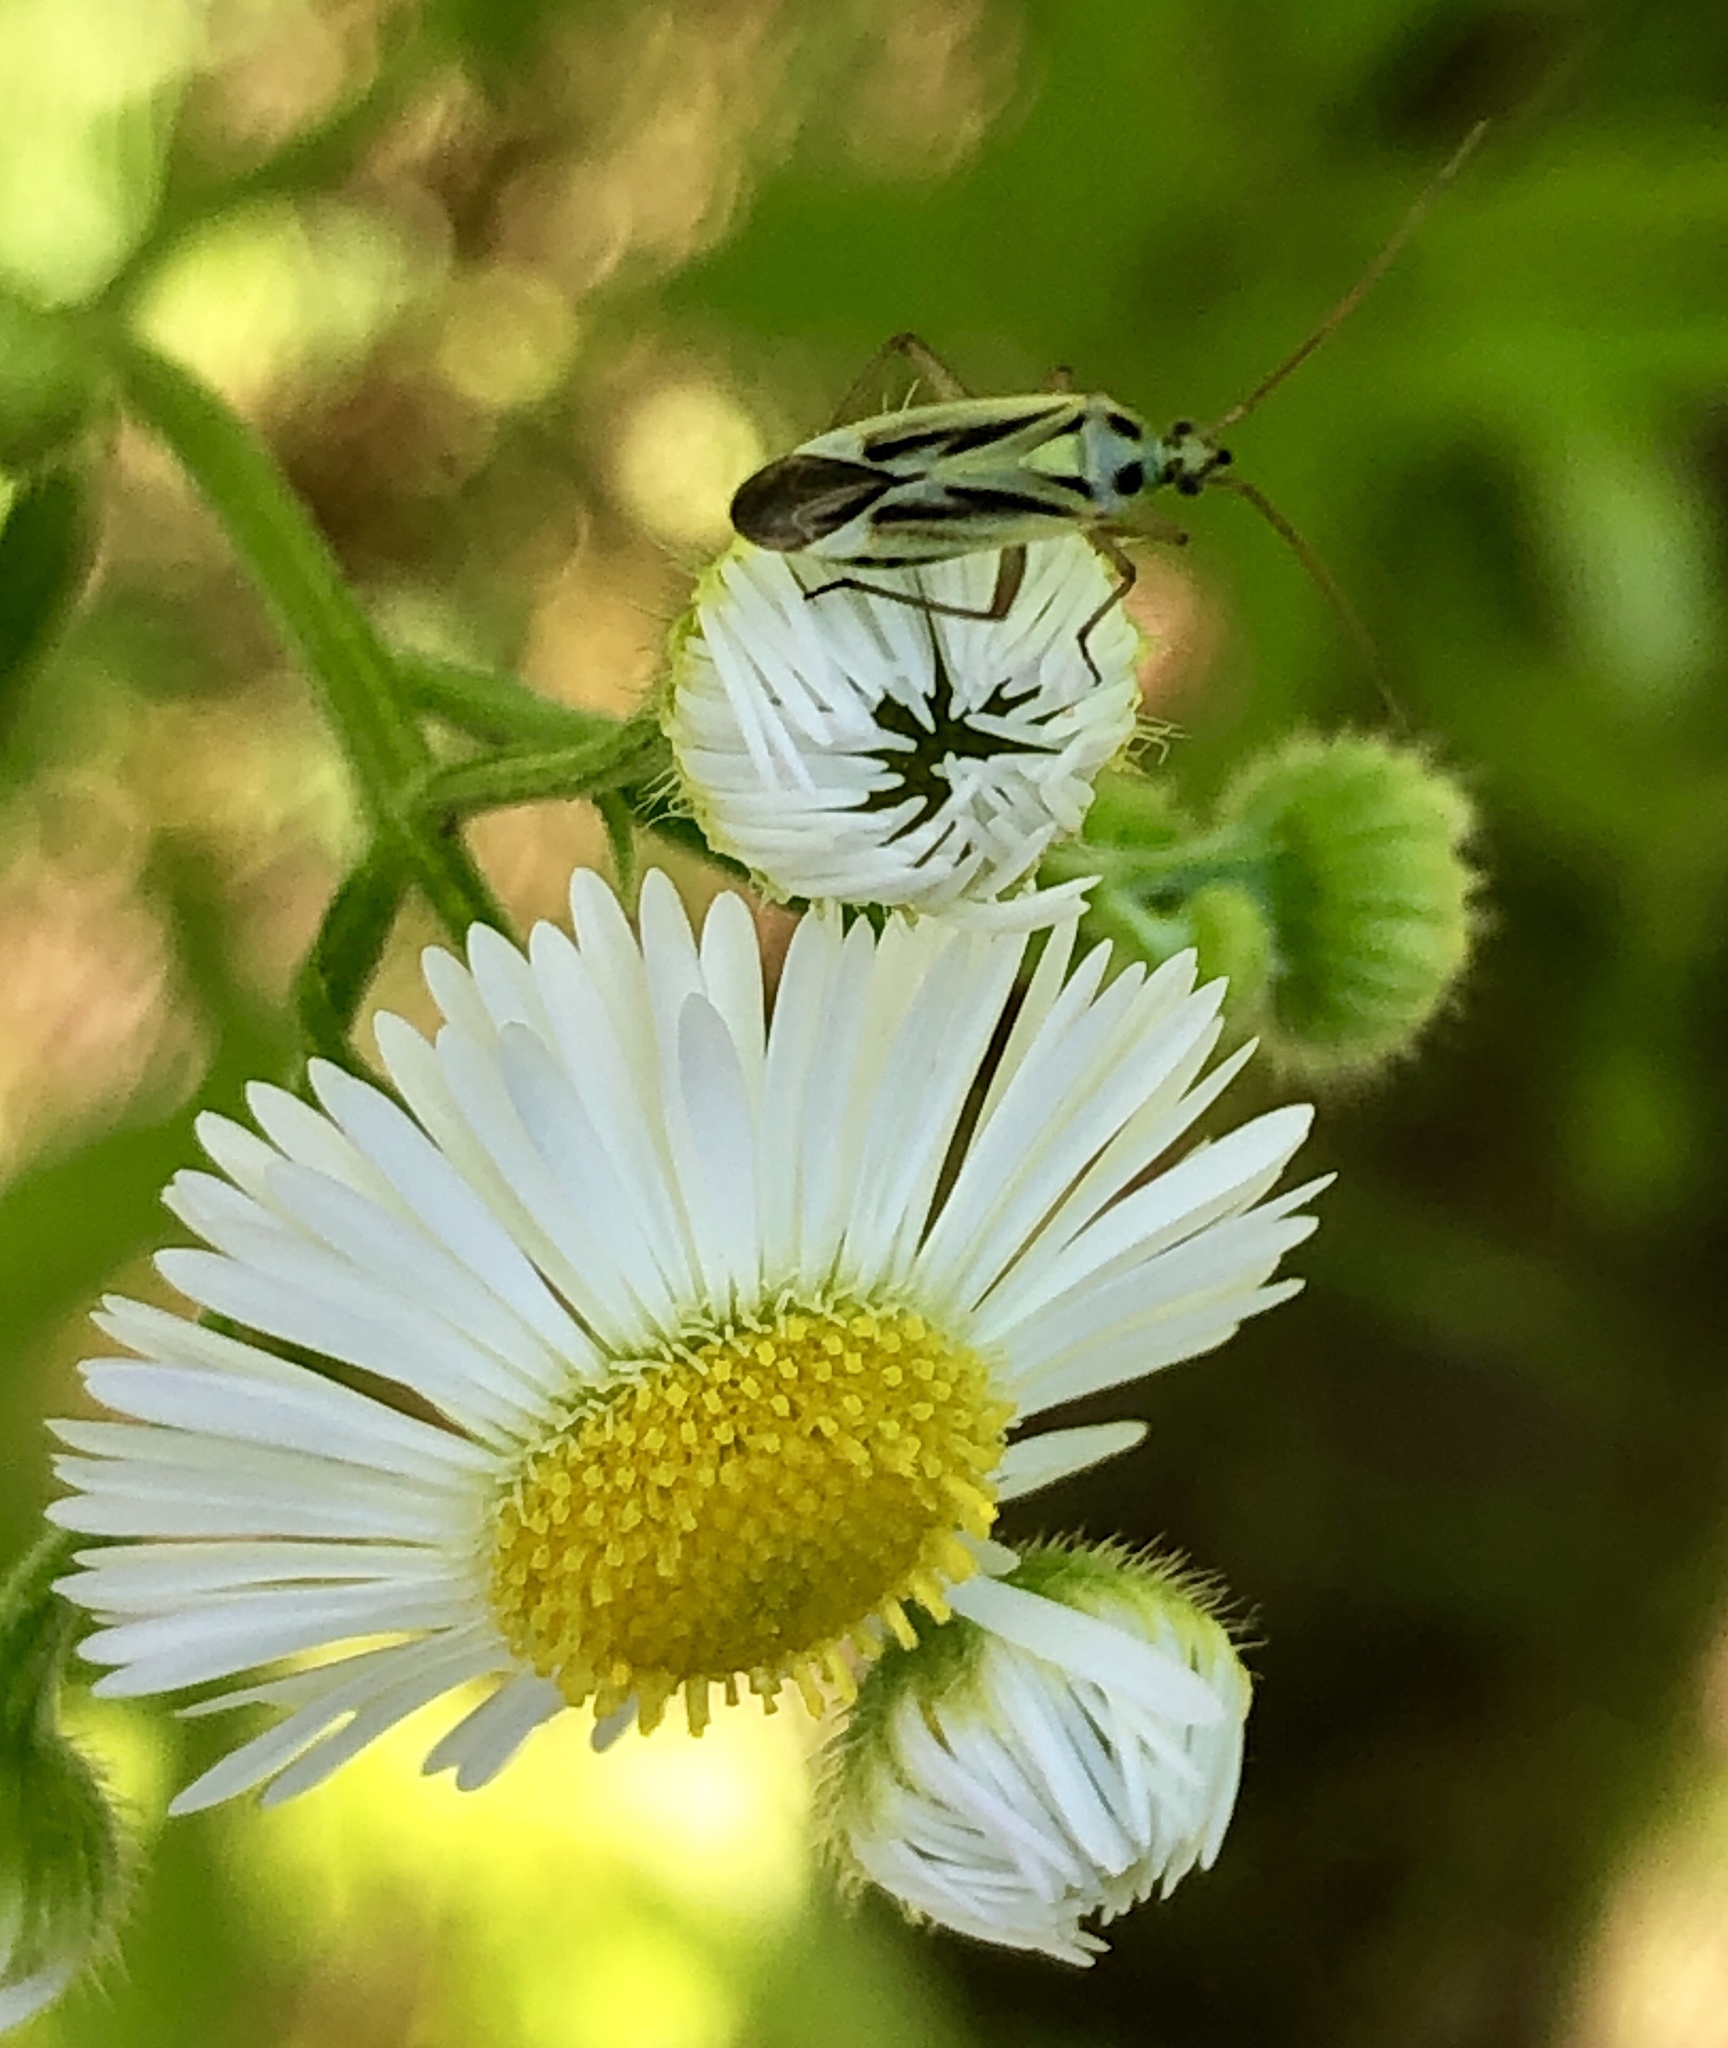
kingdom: Animalia
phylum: Arthropoda
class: Insecta
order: Hemiptera
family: Miridae
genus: Stenotus
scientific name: Stenotus binotatus
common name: Plant bug
